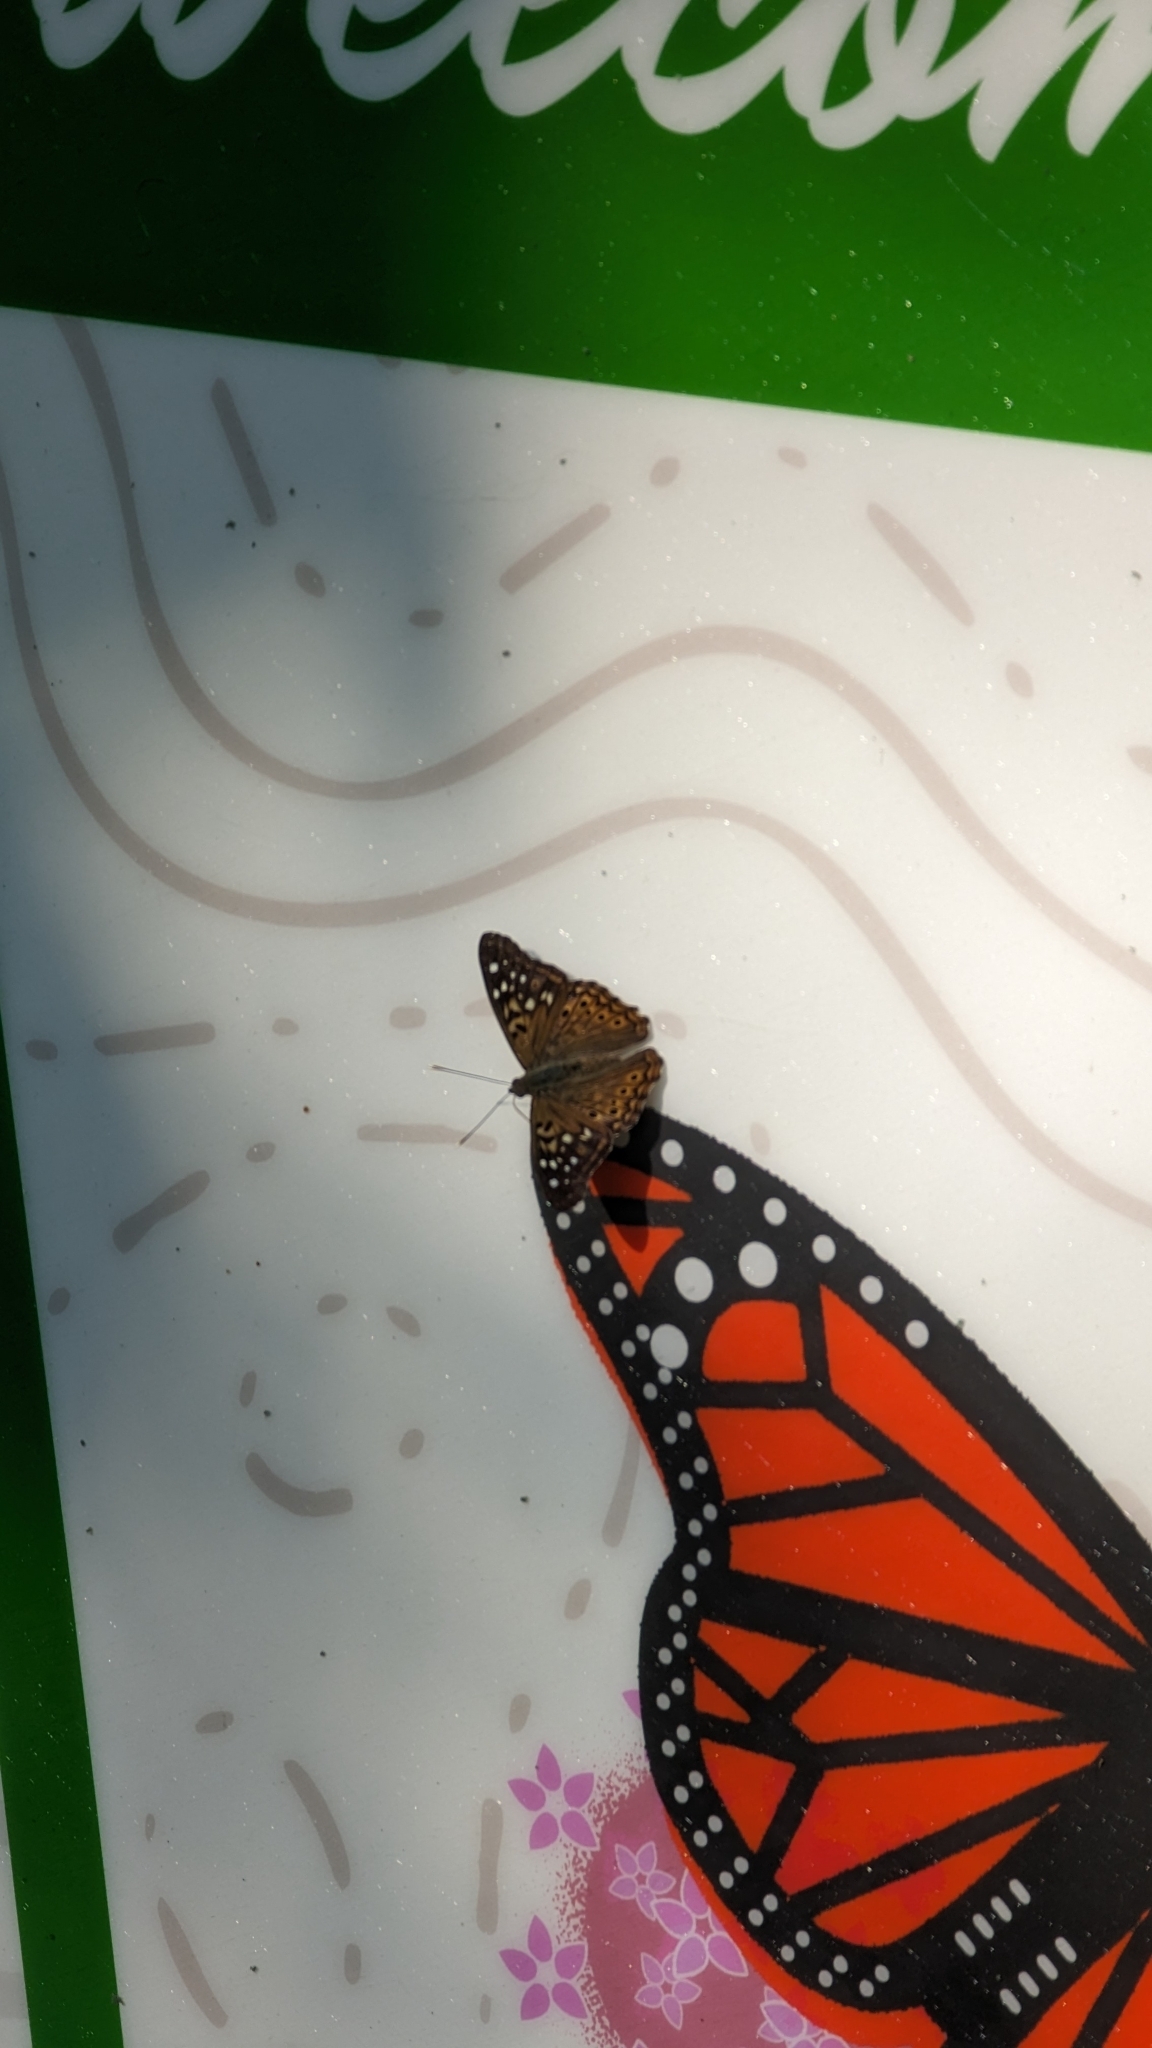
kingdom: Animalia
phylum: Arthropoda
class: Insecta
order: Lepidoptera
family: Nymphalidae
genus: Asterocampa
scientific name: Asterocampa celtis
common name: Hackberry emperor
